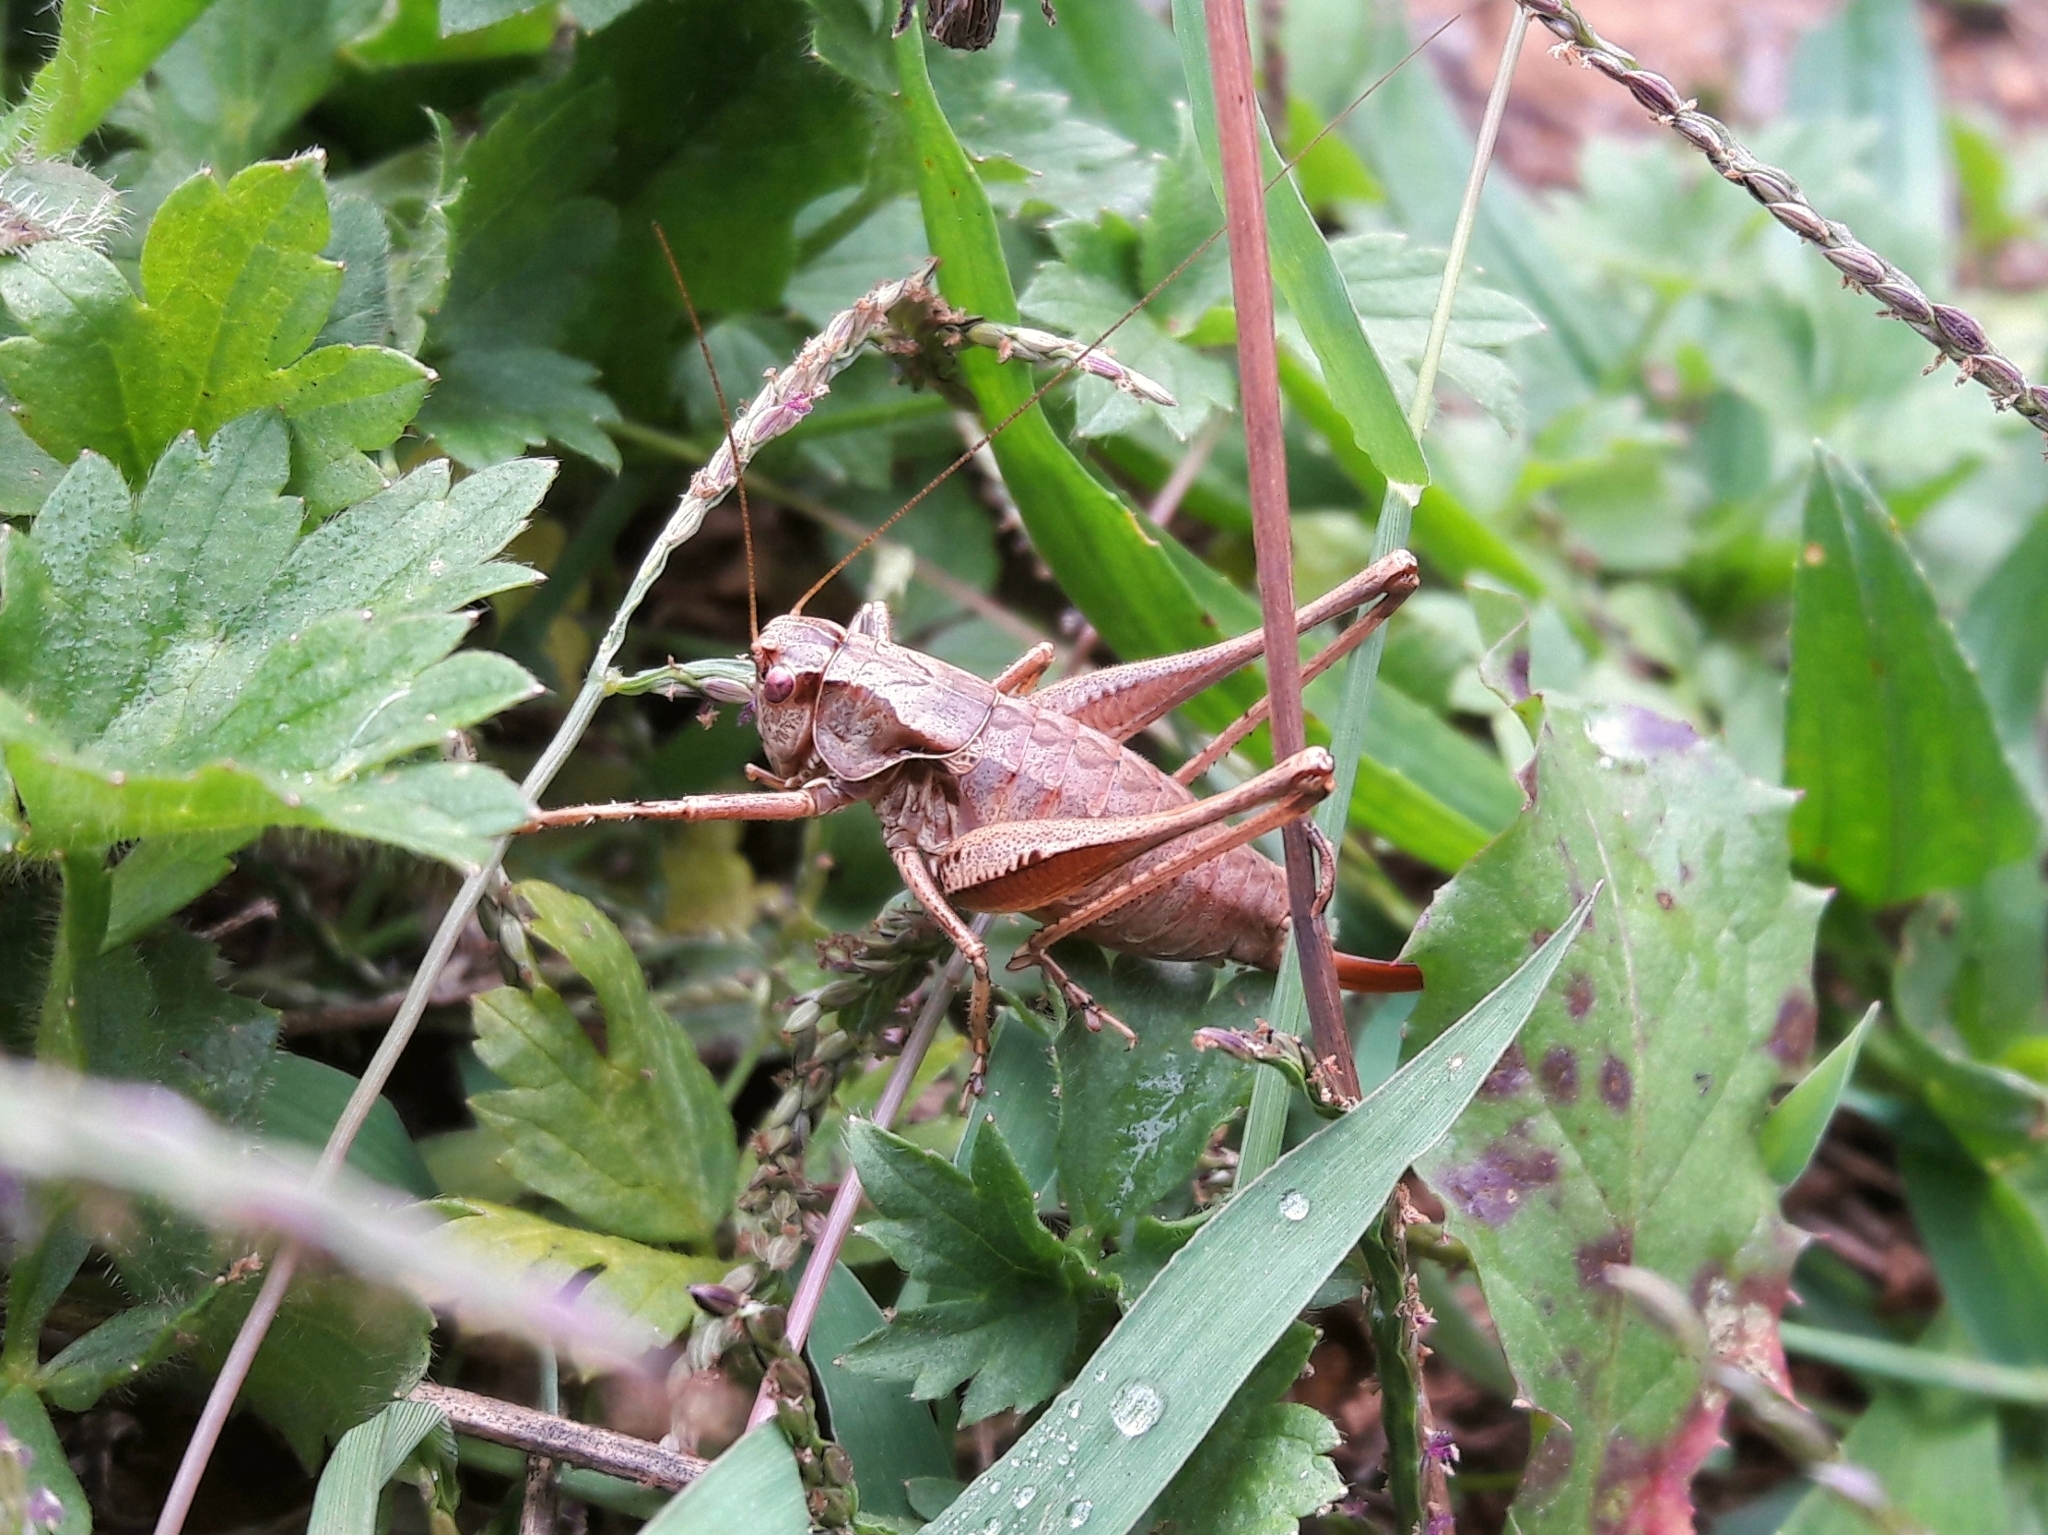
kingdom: Animalia
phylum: Arthropoda
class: Insecta
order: Orthoptera
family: Tettigoniidae
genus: Pholidoptera
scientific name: Pholidoptera griseoaptera
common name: Dark bush-cricket
